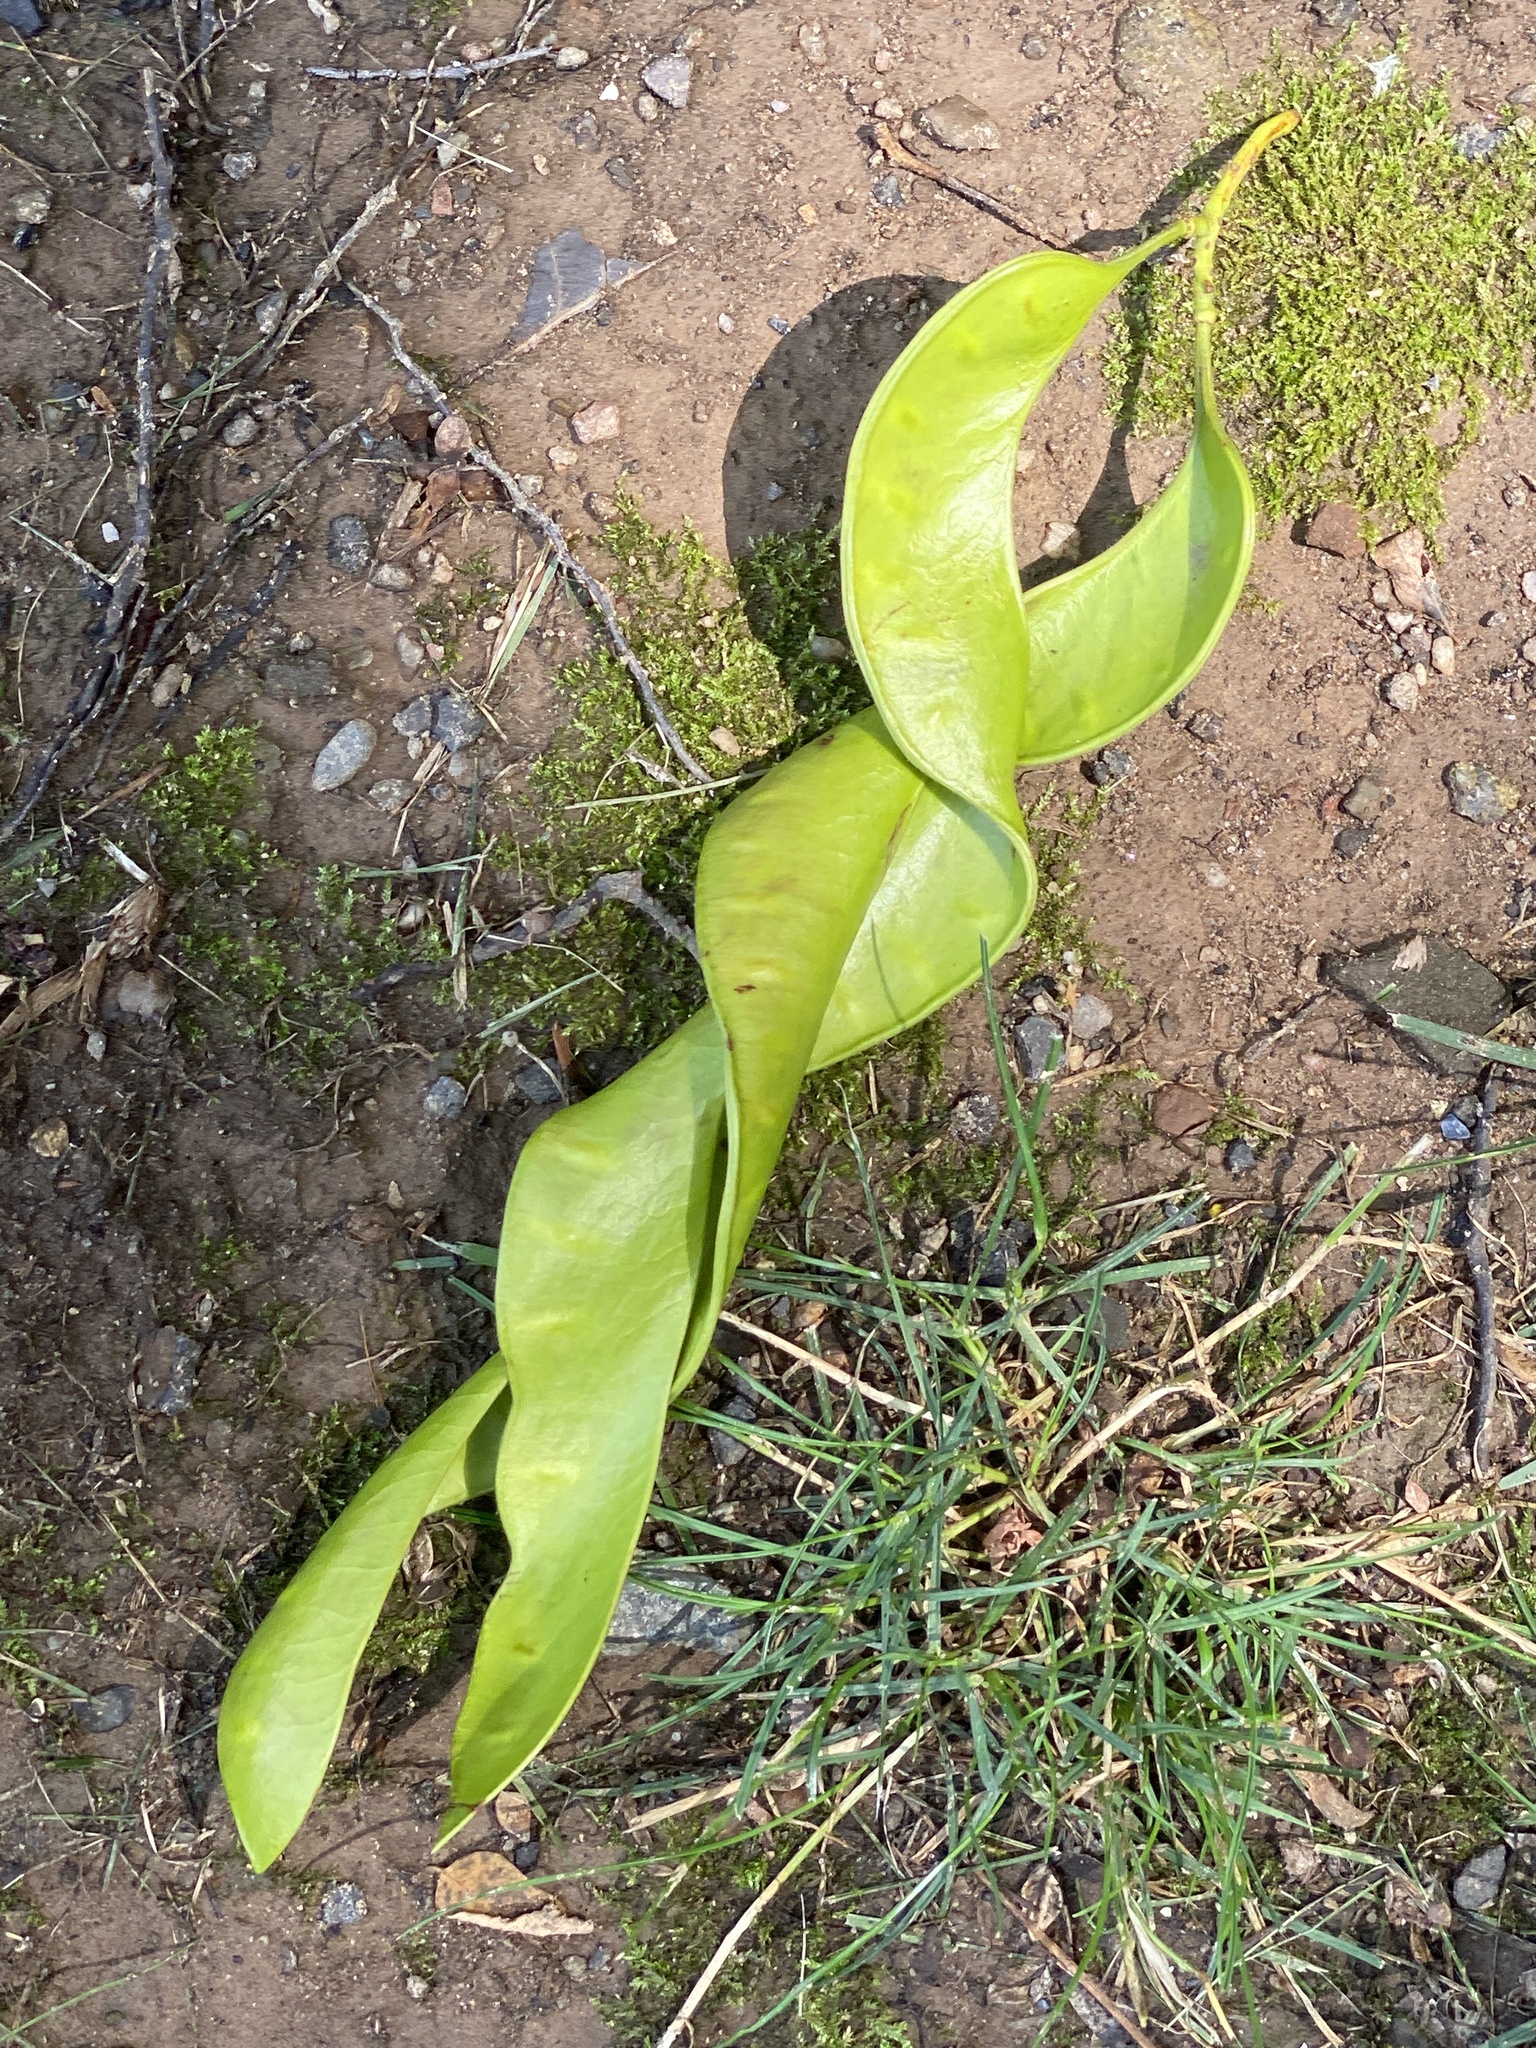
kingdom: Plantae
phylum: Tracheophyta
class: Magnoliopsida
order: Fabales
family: Fabaceae
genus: Gleditsia
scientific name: Gleditsia triacanthos
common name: Common honeylocust
